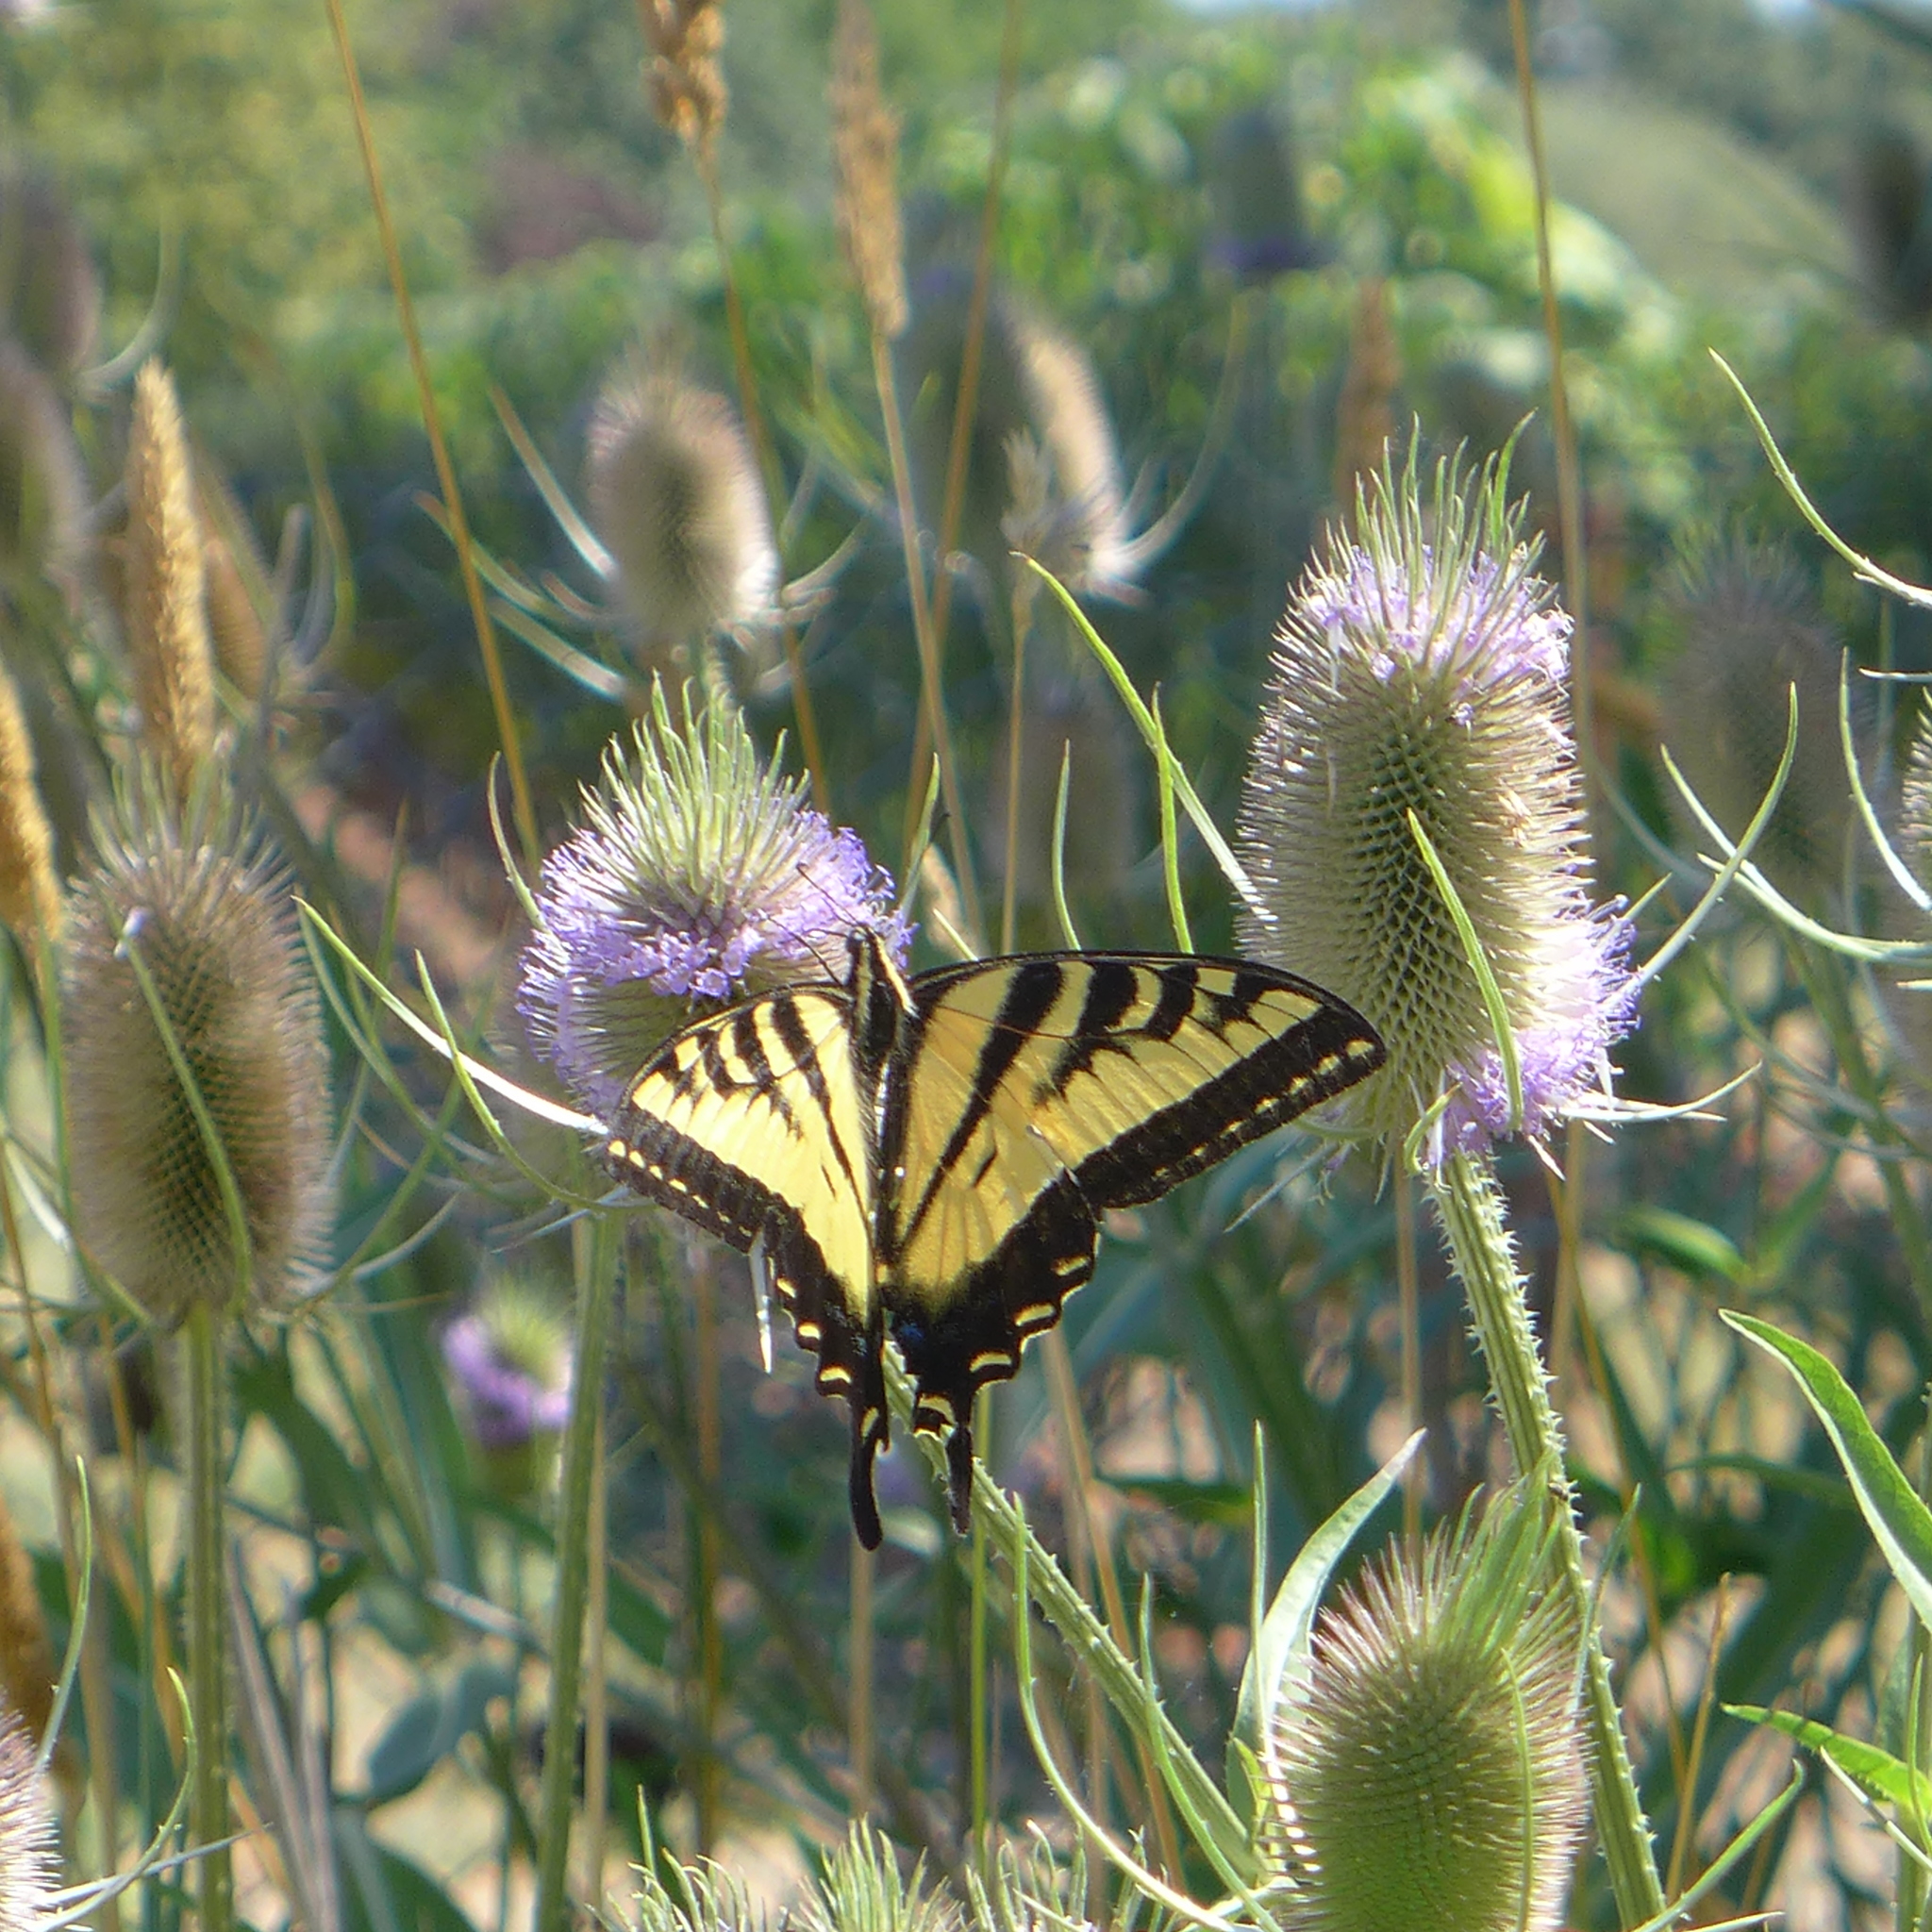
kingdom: Animalia
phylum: Arthropoda
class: Insecta
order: Lepidoptera
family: Papilionidae
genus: Papilio
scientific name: Papilio rutulus
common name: Western tiger swallowtail
